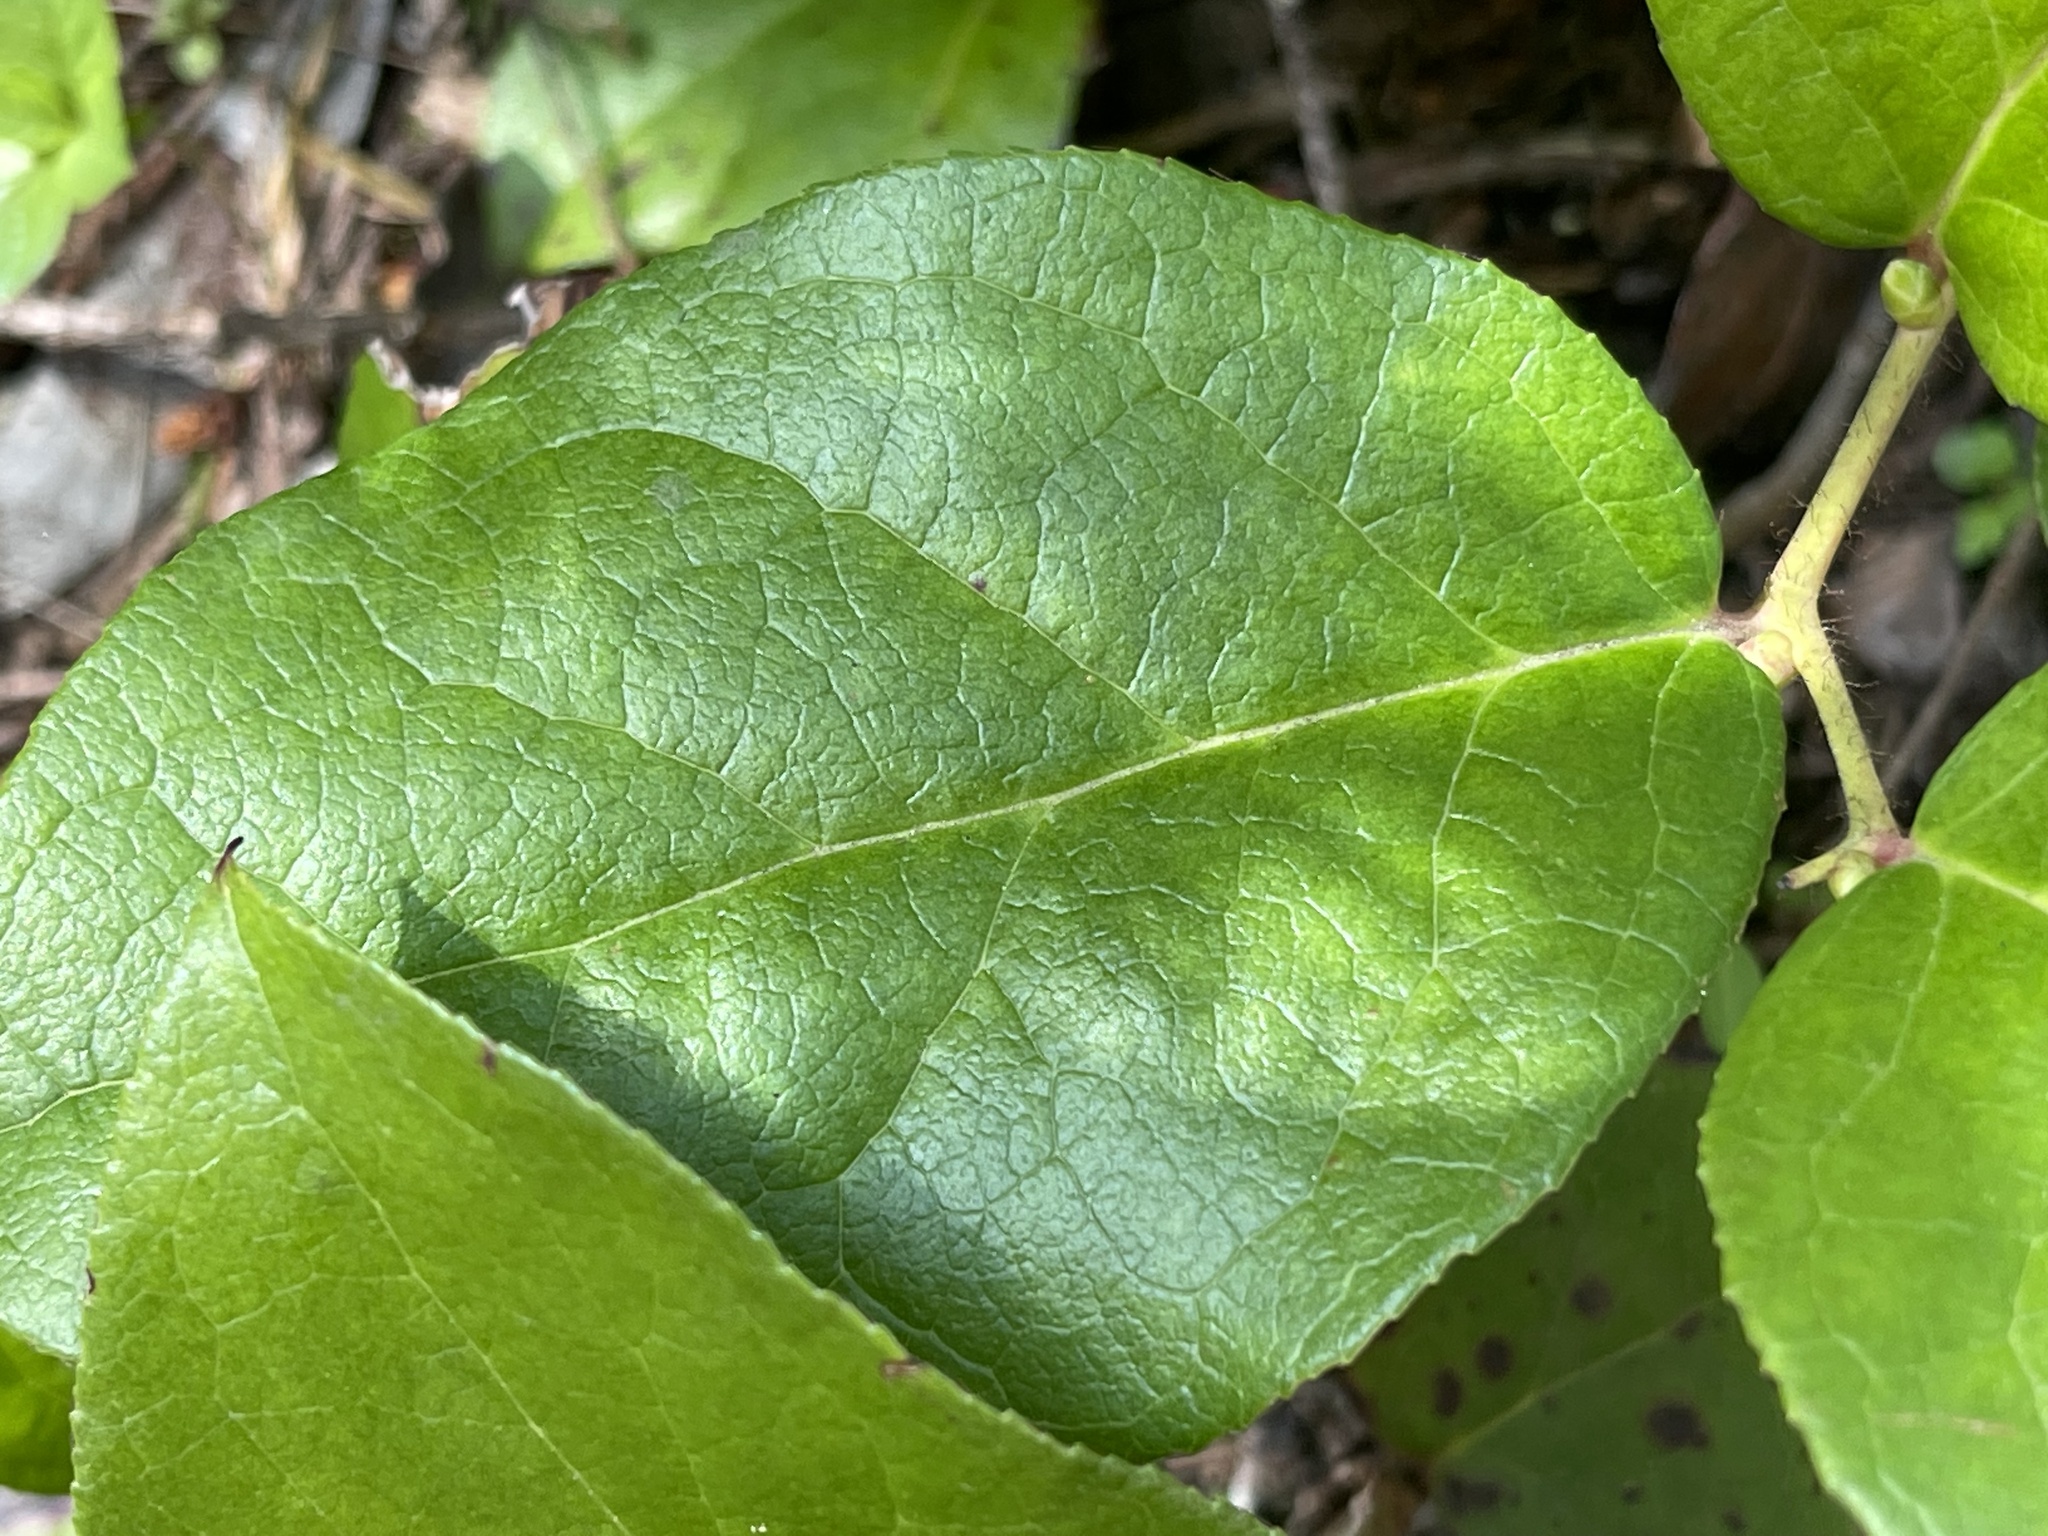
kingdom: Plantae
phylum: Tracheophyta
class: Liliopsida
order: Liliales
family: Liliaceae
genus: Erythronium
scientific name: Erythronium oregonum
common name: Giant adder's-tongue
